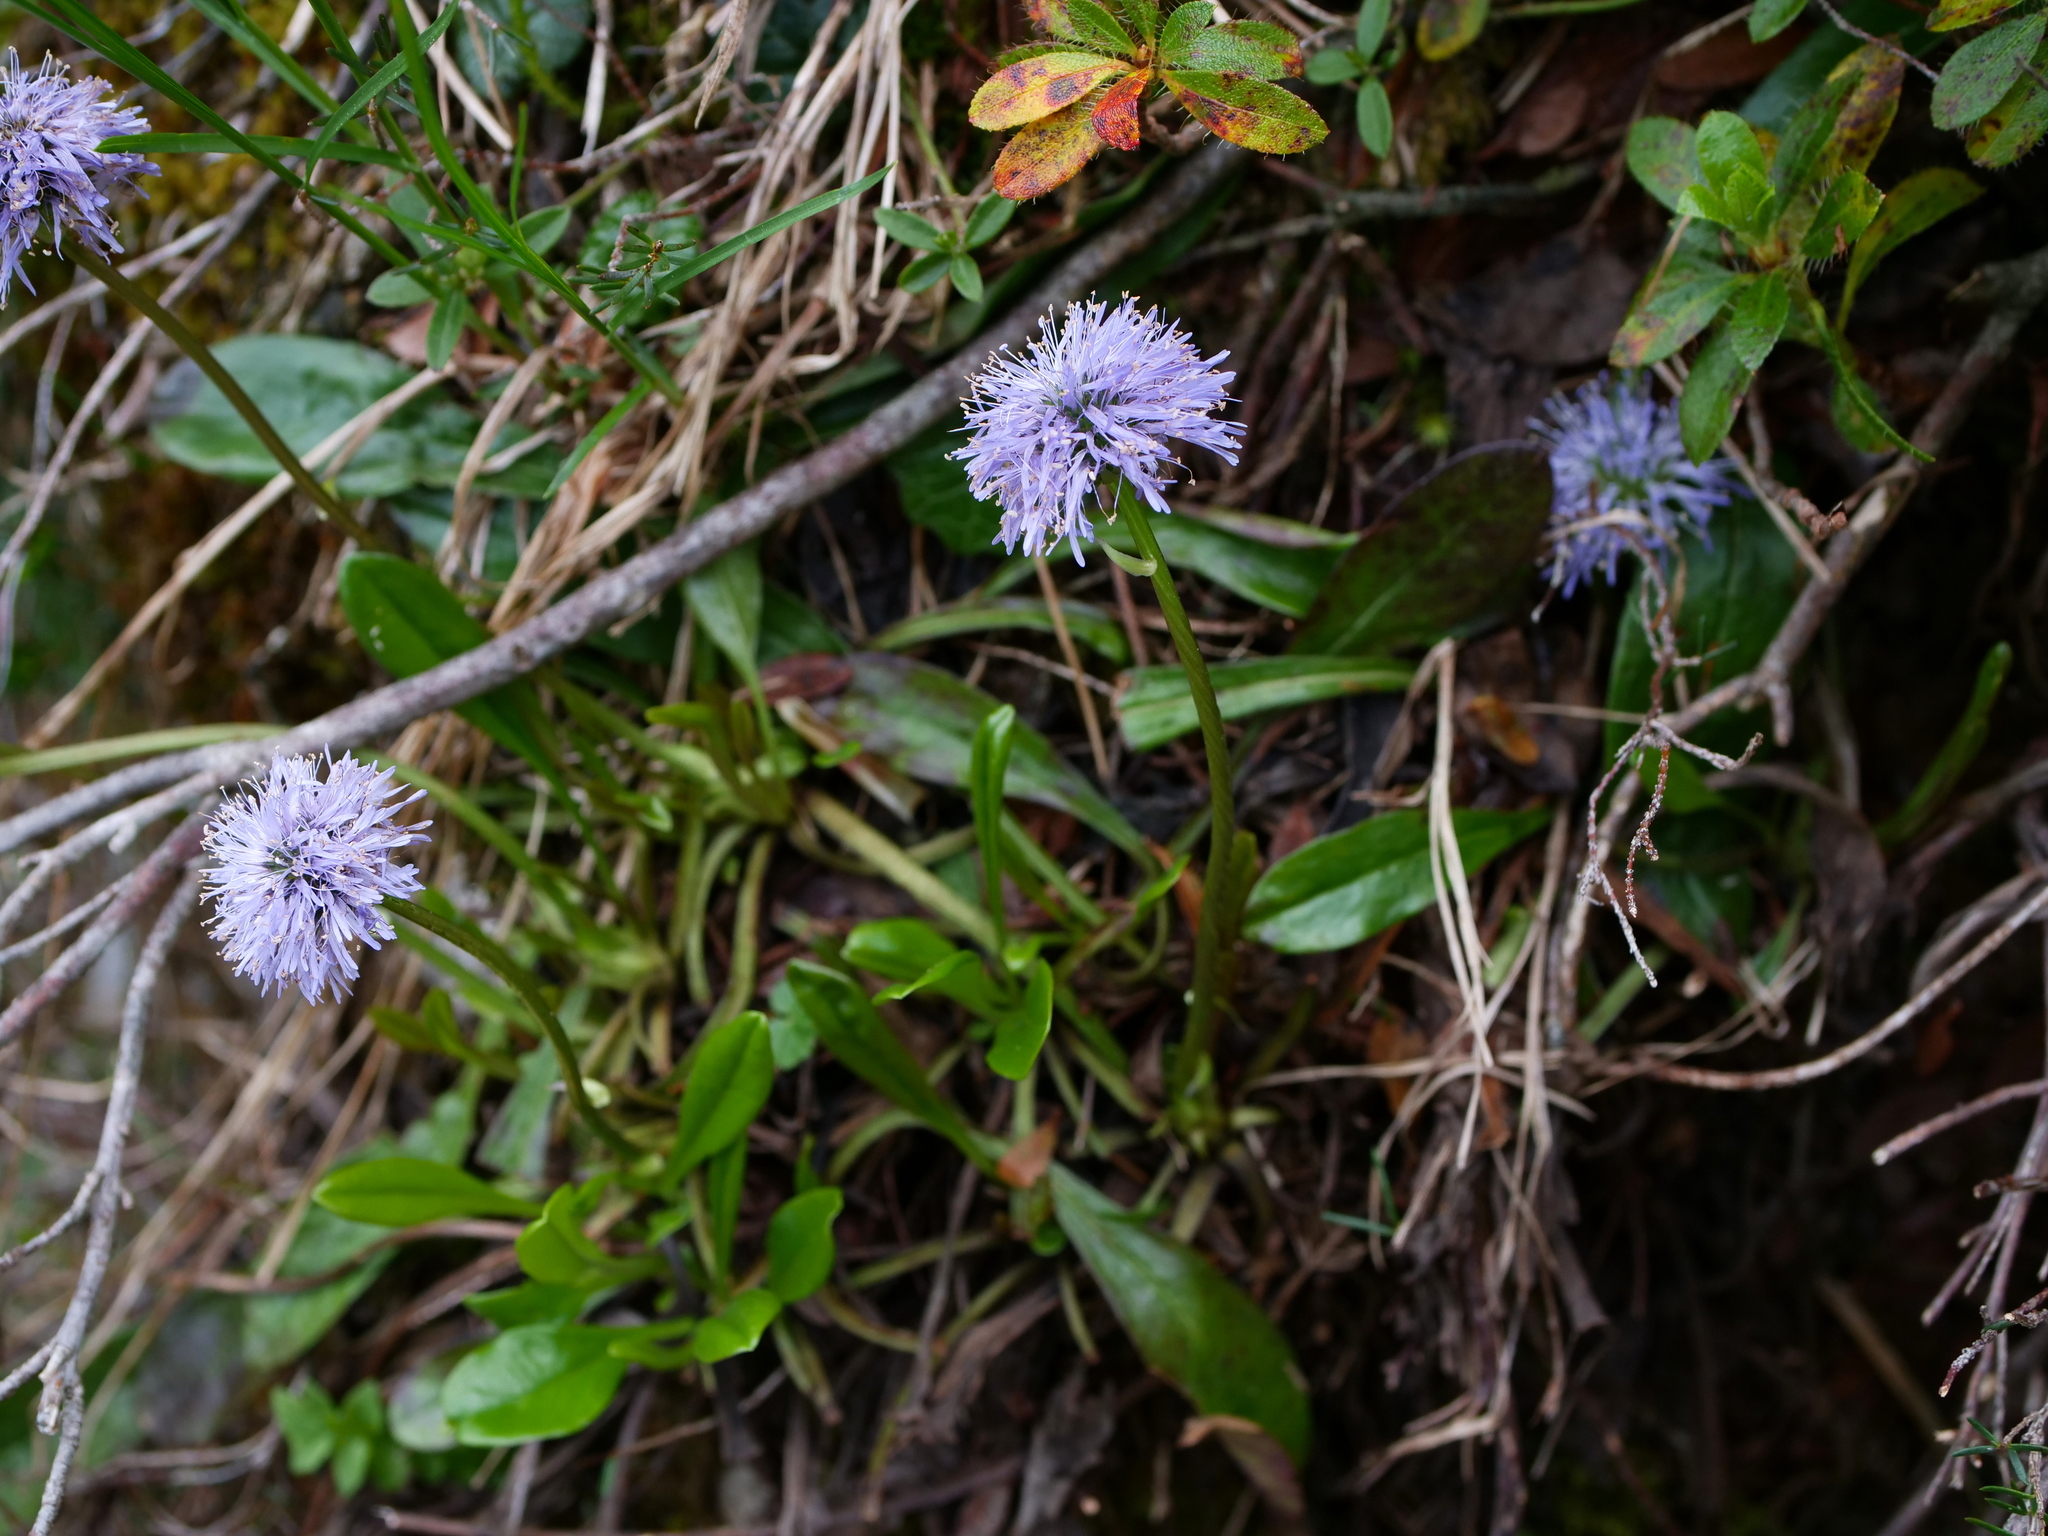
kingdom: Plantae
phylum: Tracheophyta
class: Magnoliopsida
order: Lamiales
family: Plantaginaceae
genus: Globularia
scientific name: Globularia nudicaulis
